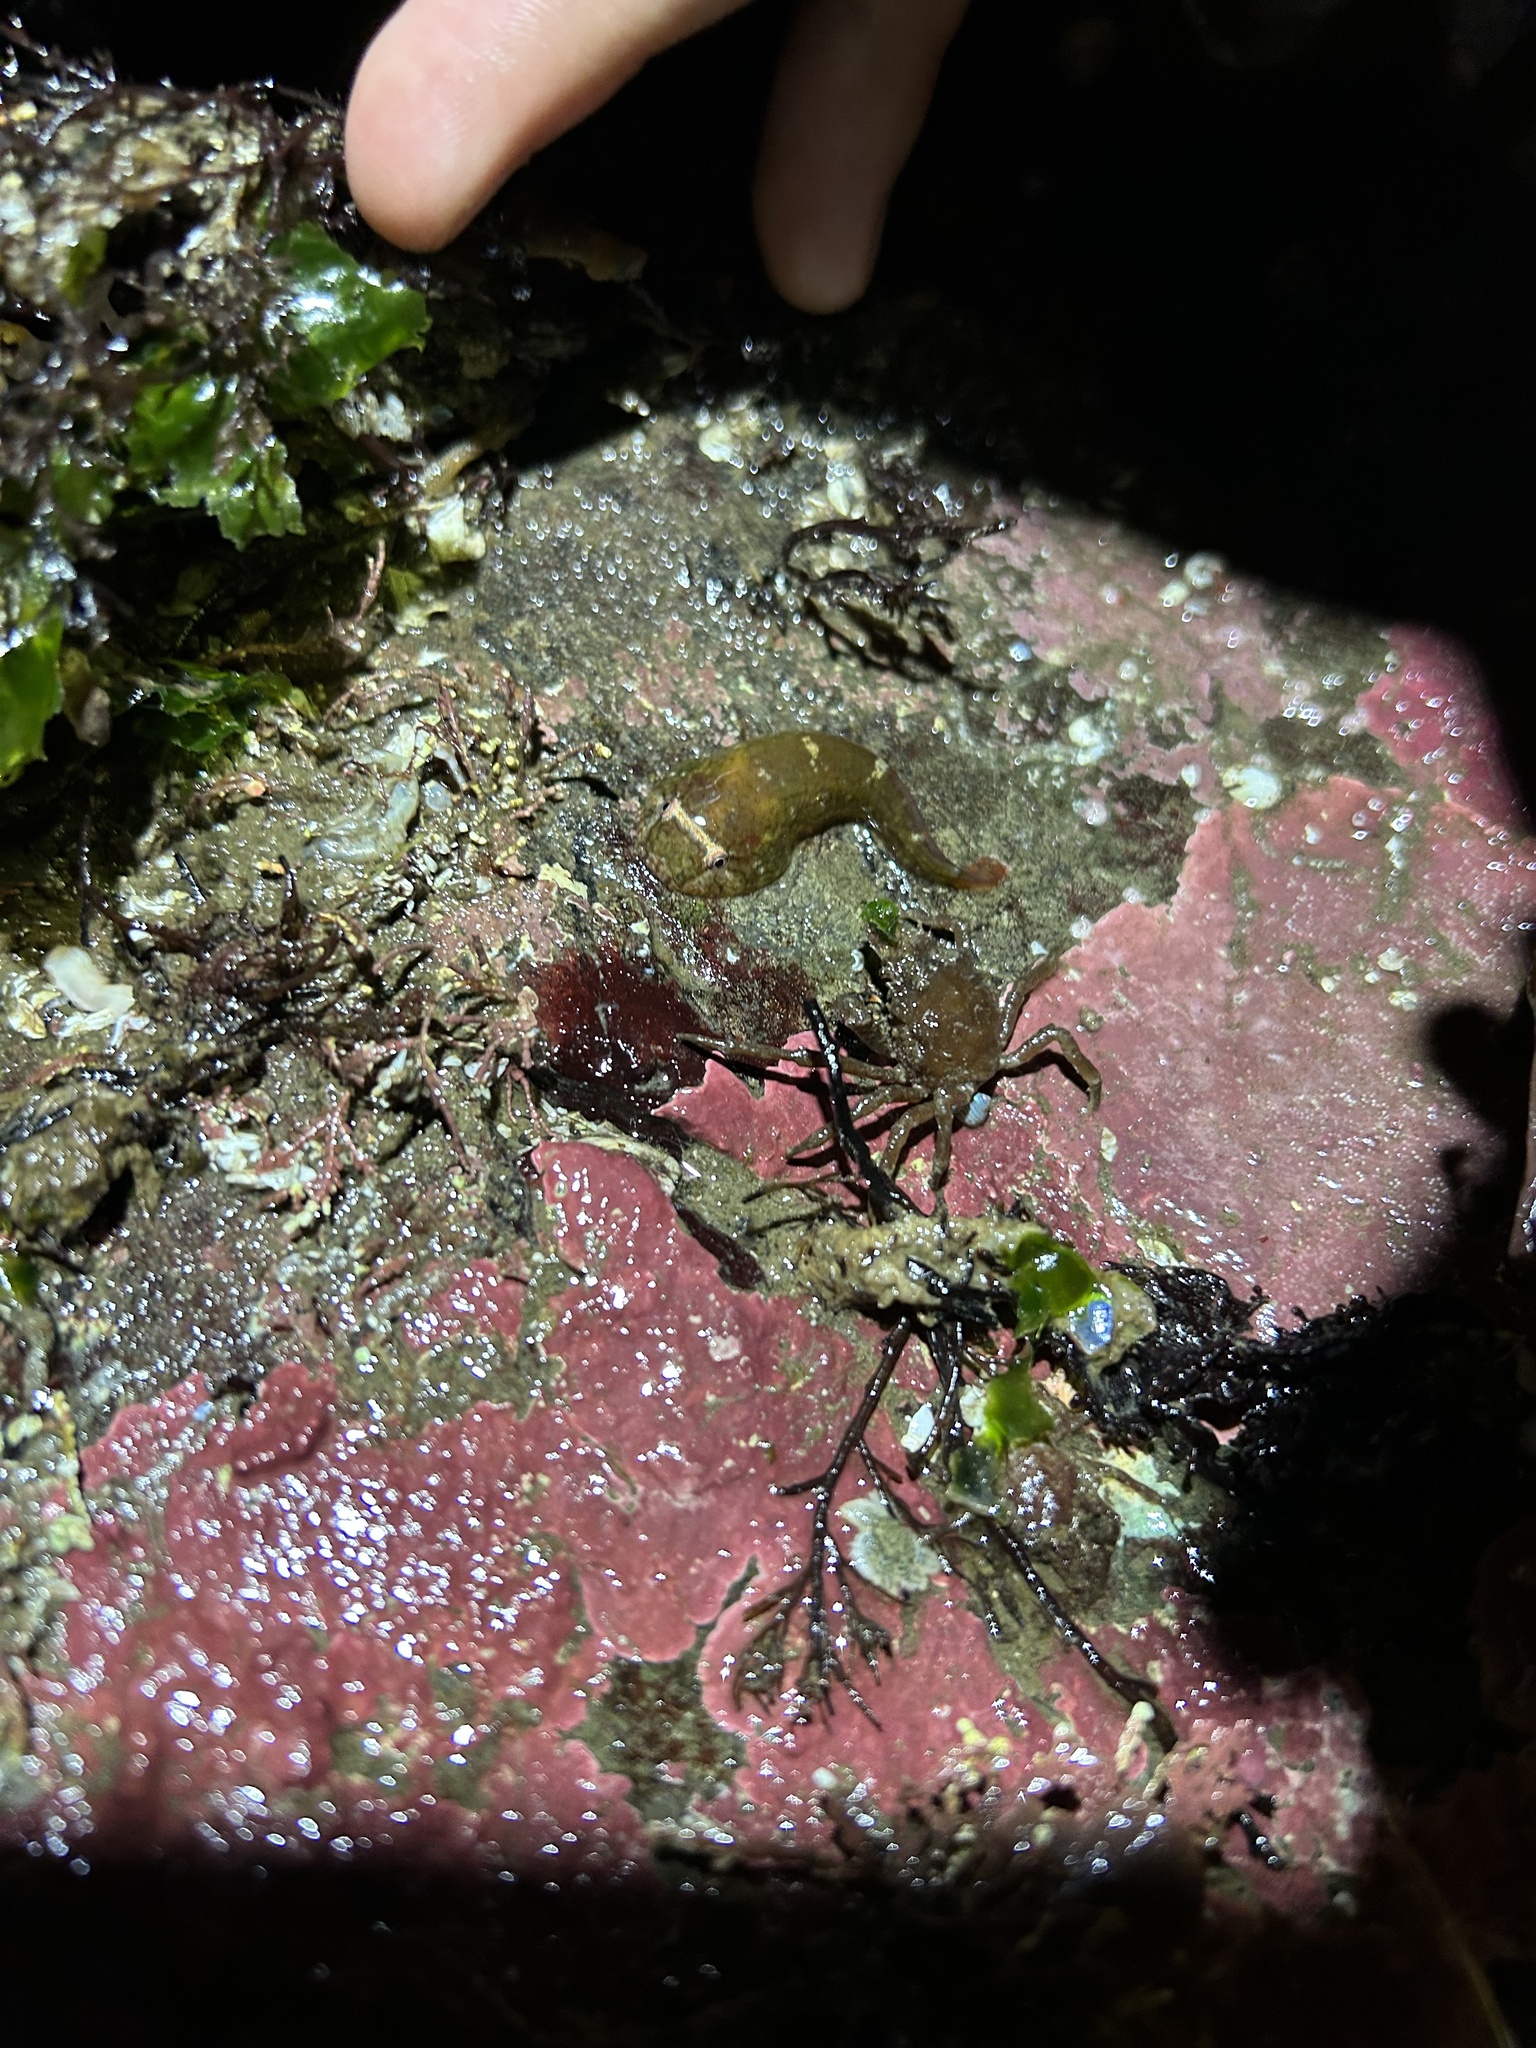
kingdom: Animalia
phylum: Chordata
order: Gobiesociformes
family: Gobiesocidae
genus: Gobiesox
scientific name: Gobiesox maeandricus
